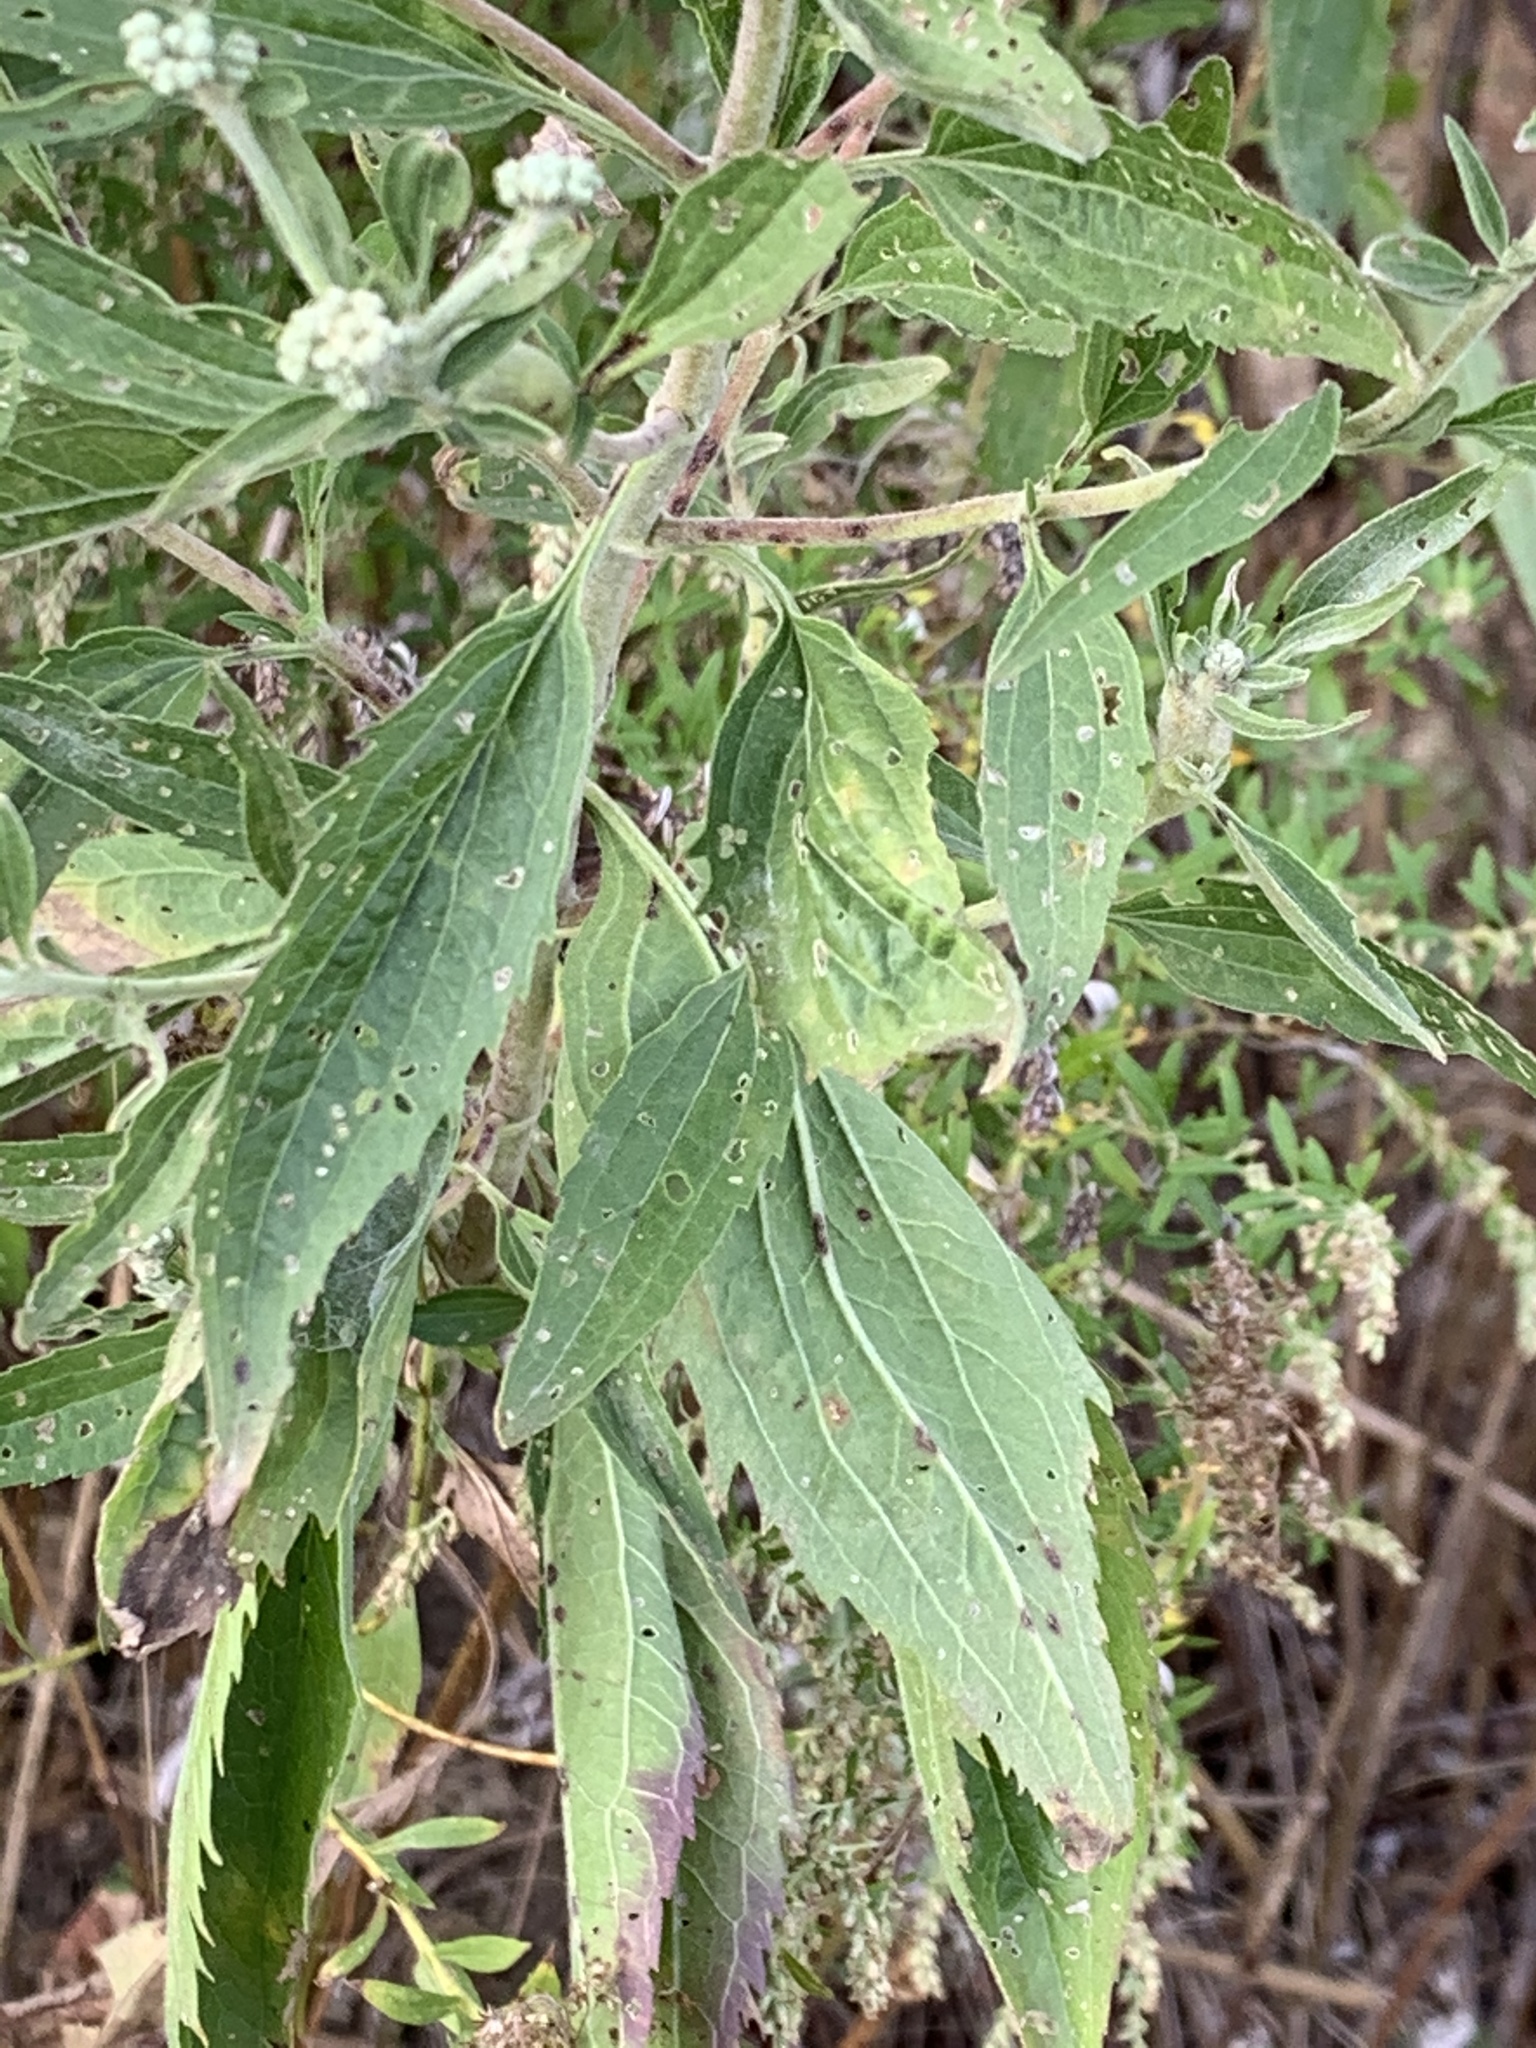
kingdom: Plantae
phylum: Tracheophyta
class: Magnoliopsida
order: Asterales
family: Asteraceae
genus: Eupatorium
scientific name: Eupatorium serotinum
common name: Late boneset
